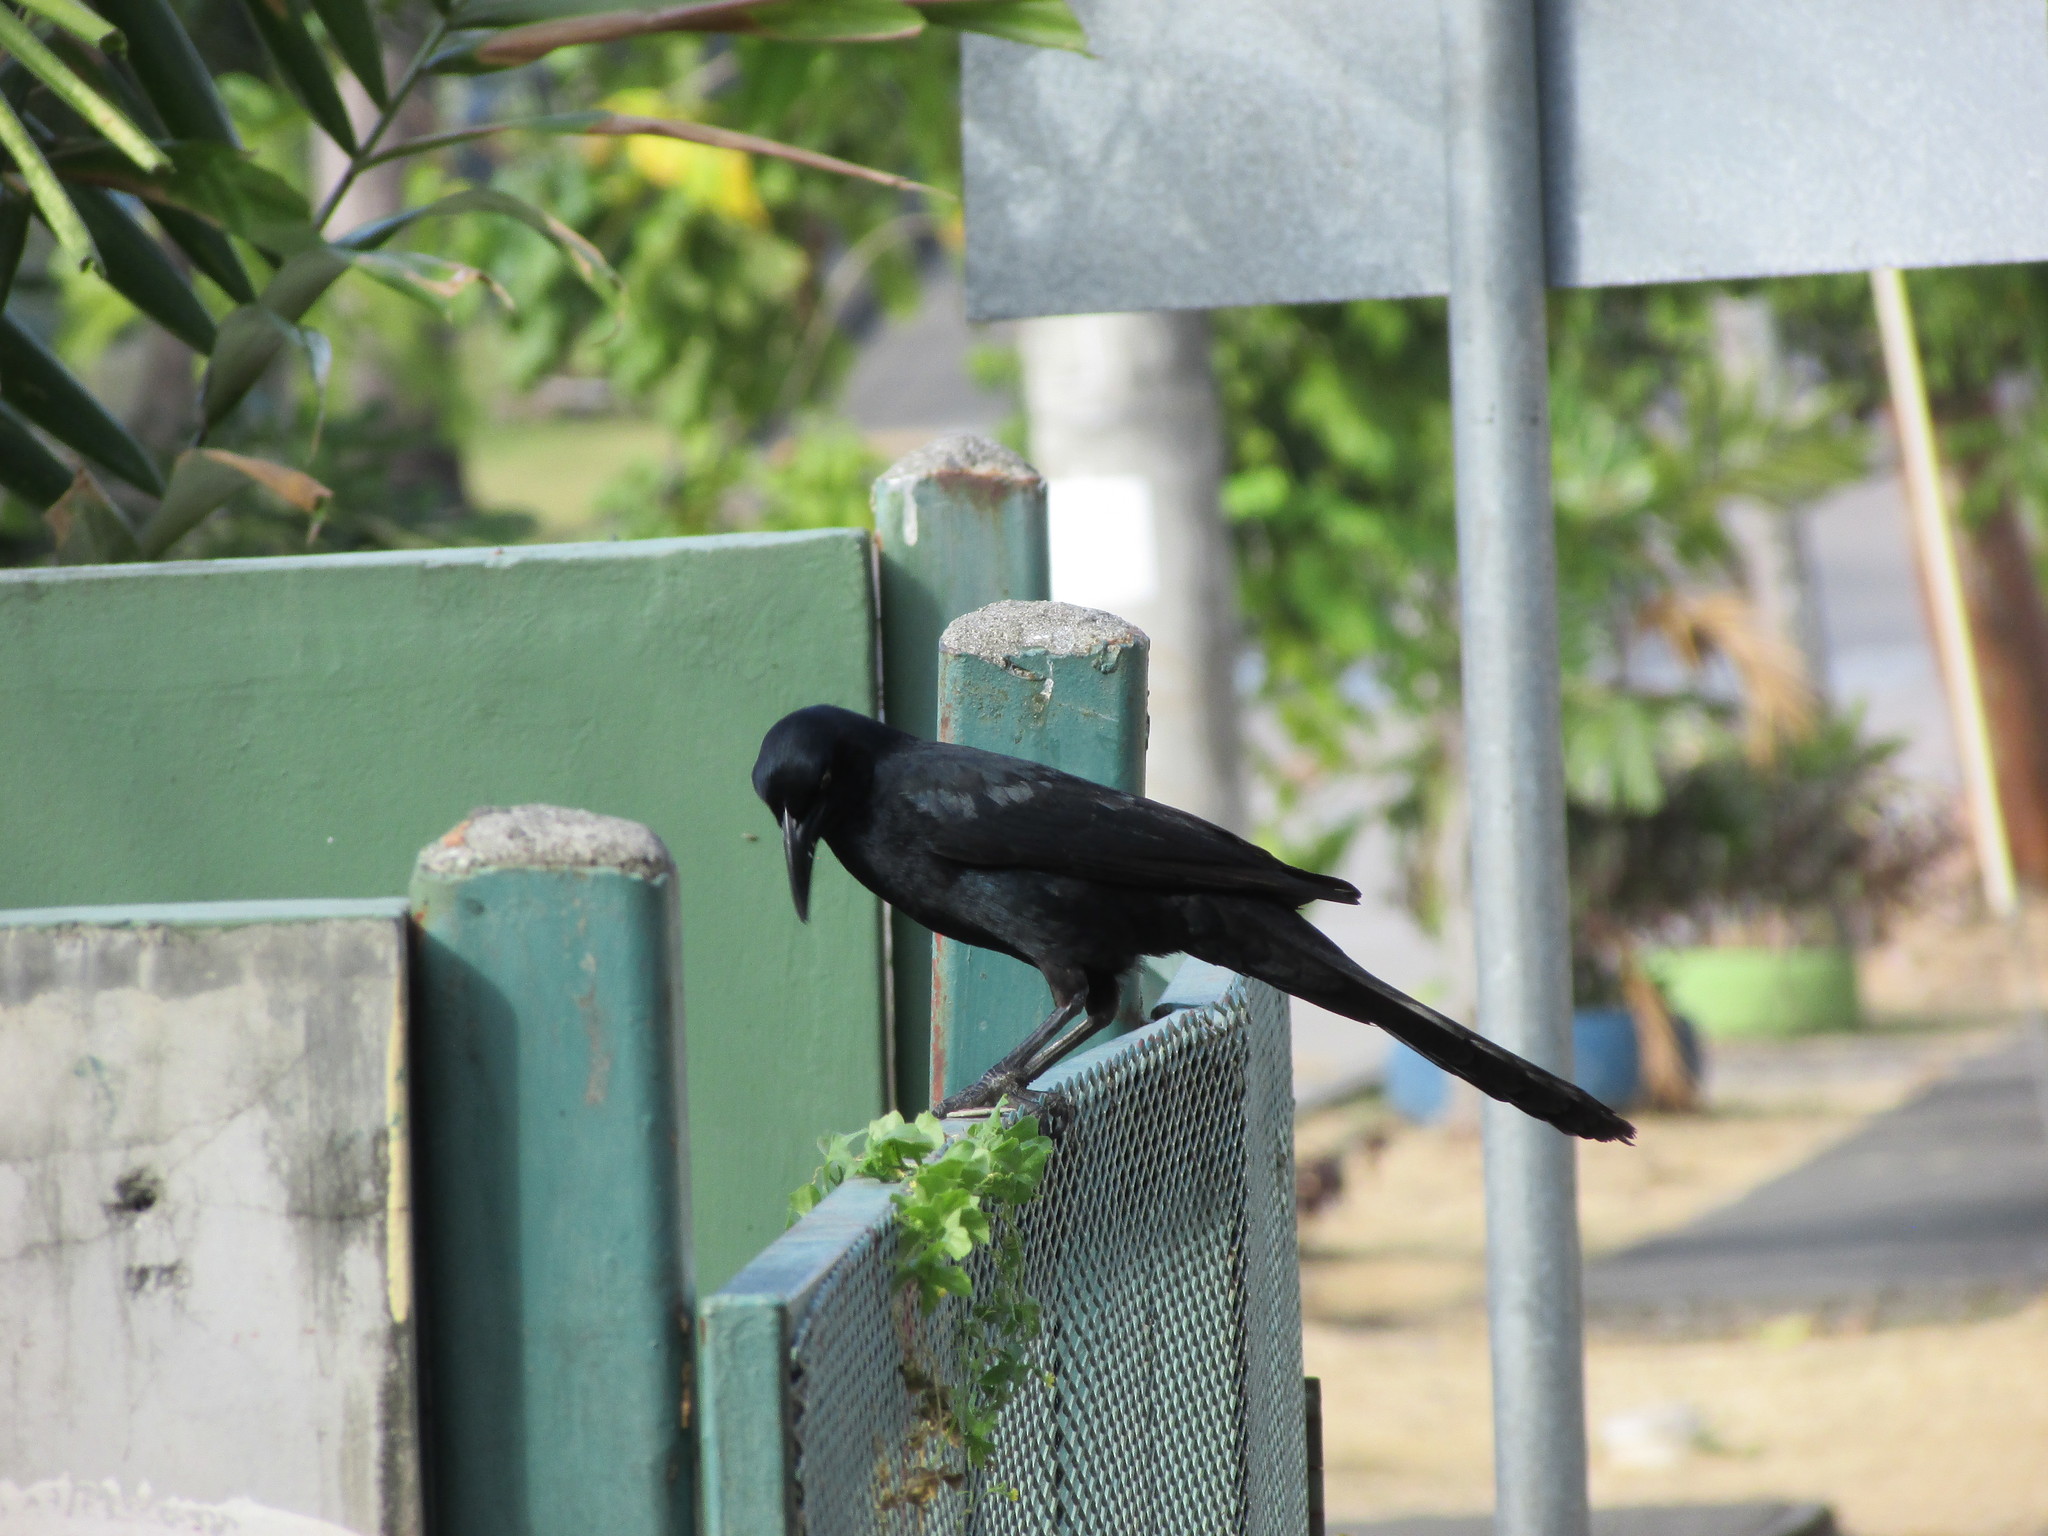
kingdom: Animalia
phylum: Chordata
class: Aves
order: Passeriformes
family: Icteridae
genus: Quiscalus
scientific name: Quiscalus mexicanus
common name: Great-tailed grackle
